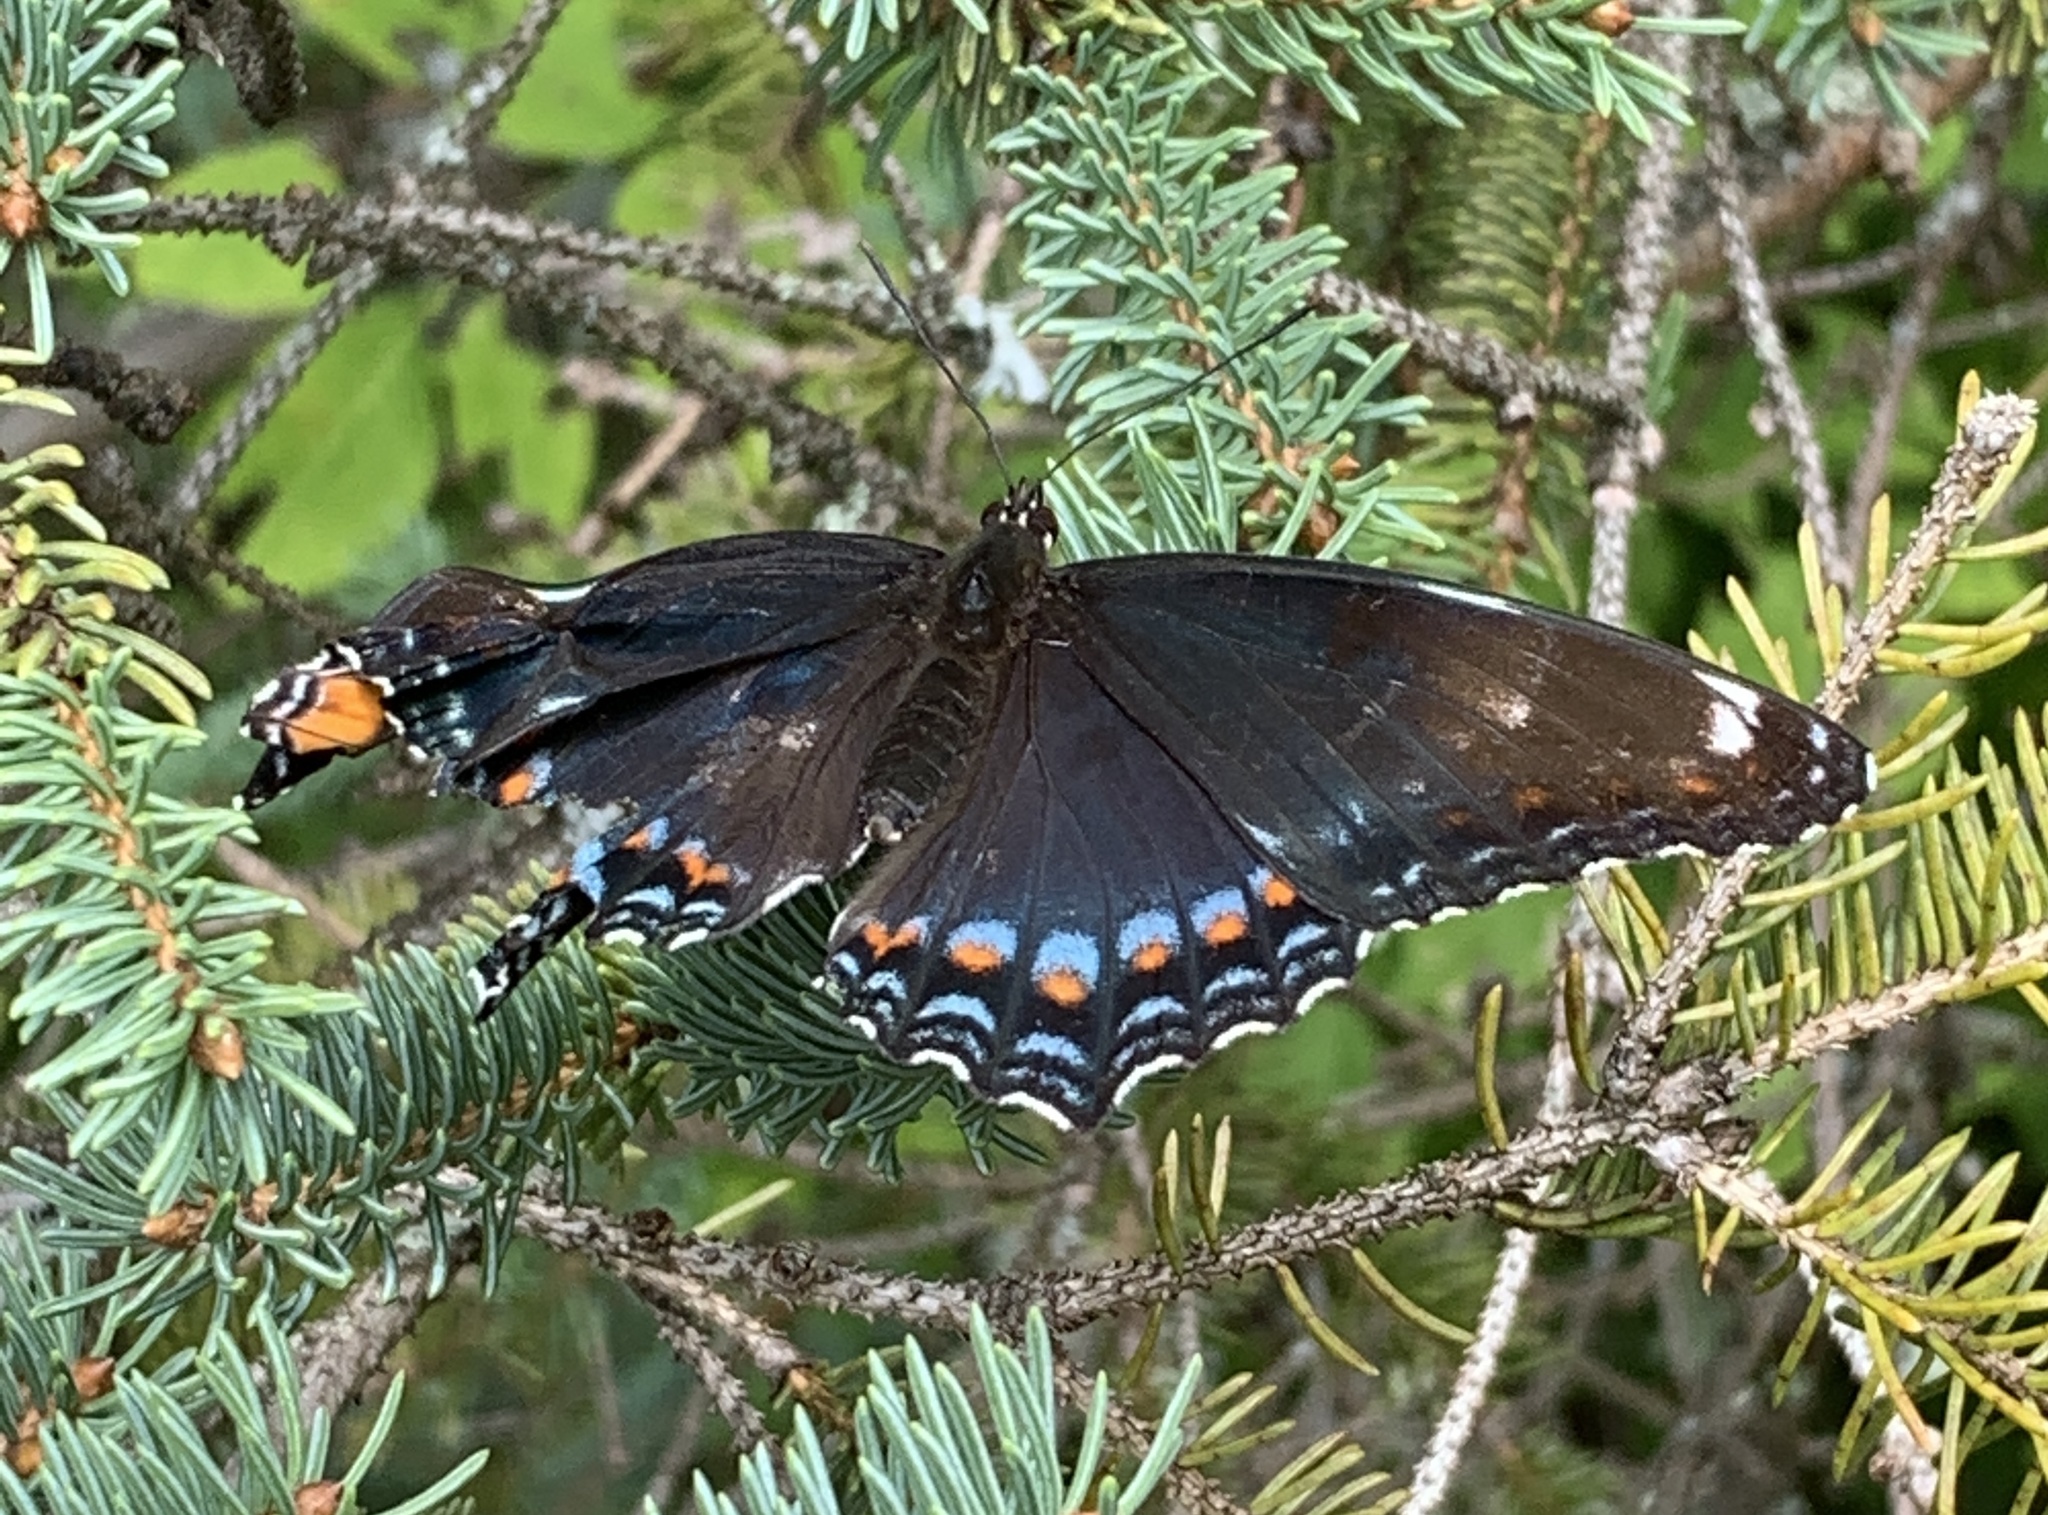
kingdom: Animalia
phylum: Arthropoda
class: Insecta
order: Lepidoptera
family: Nymphalidae
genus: Limenitis
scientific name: Limenitis
